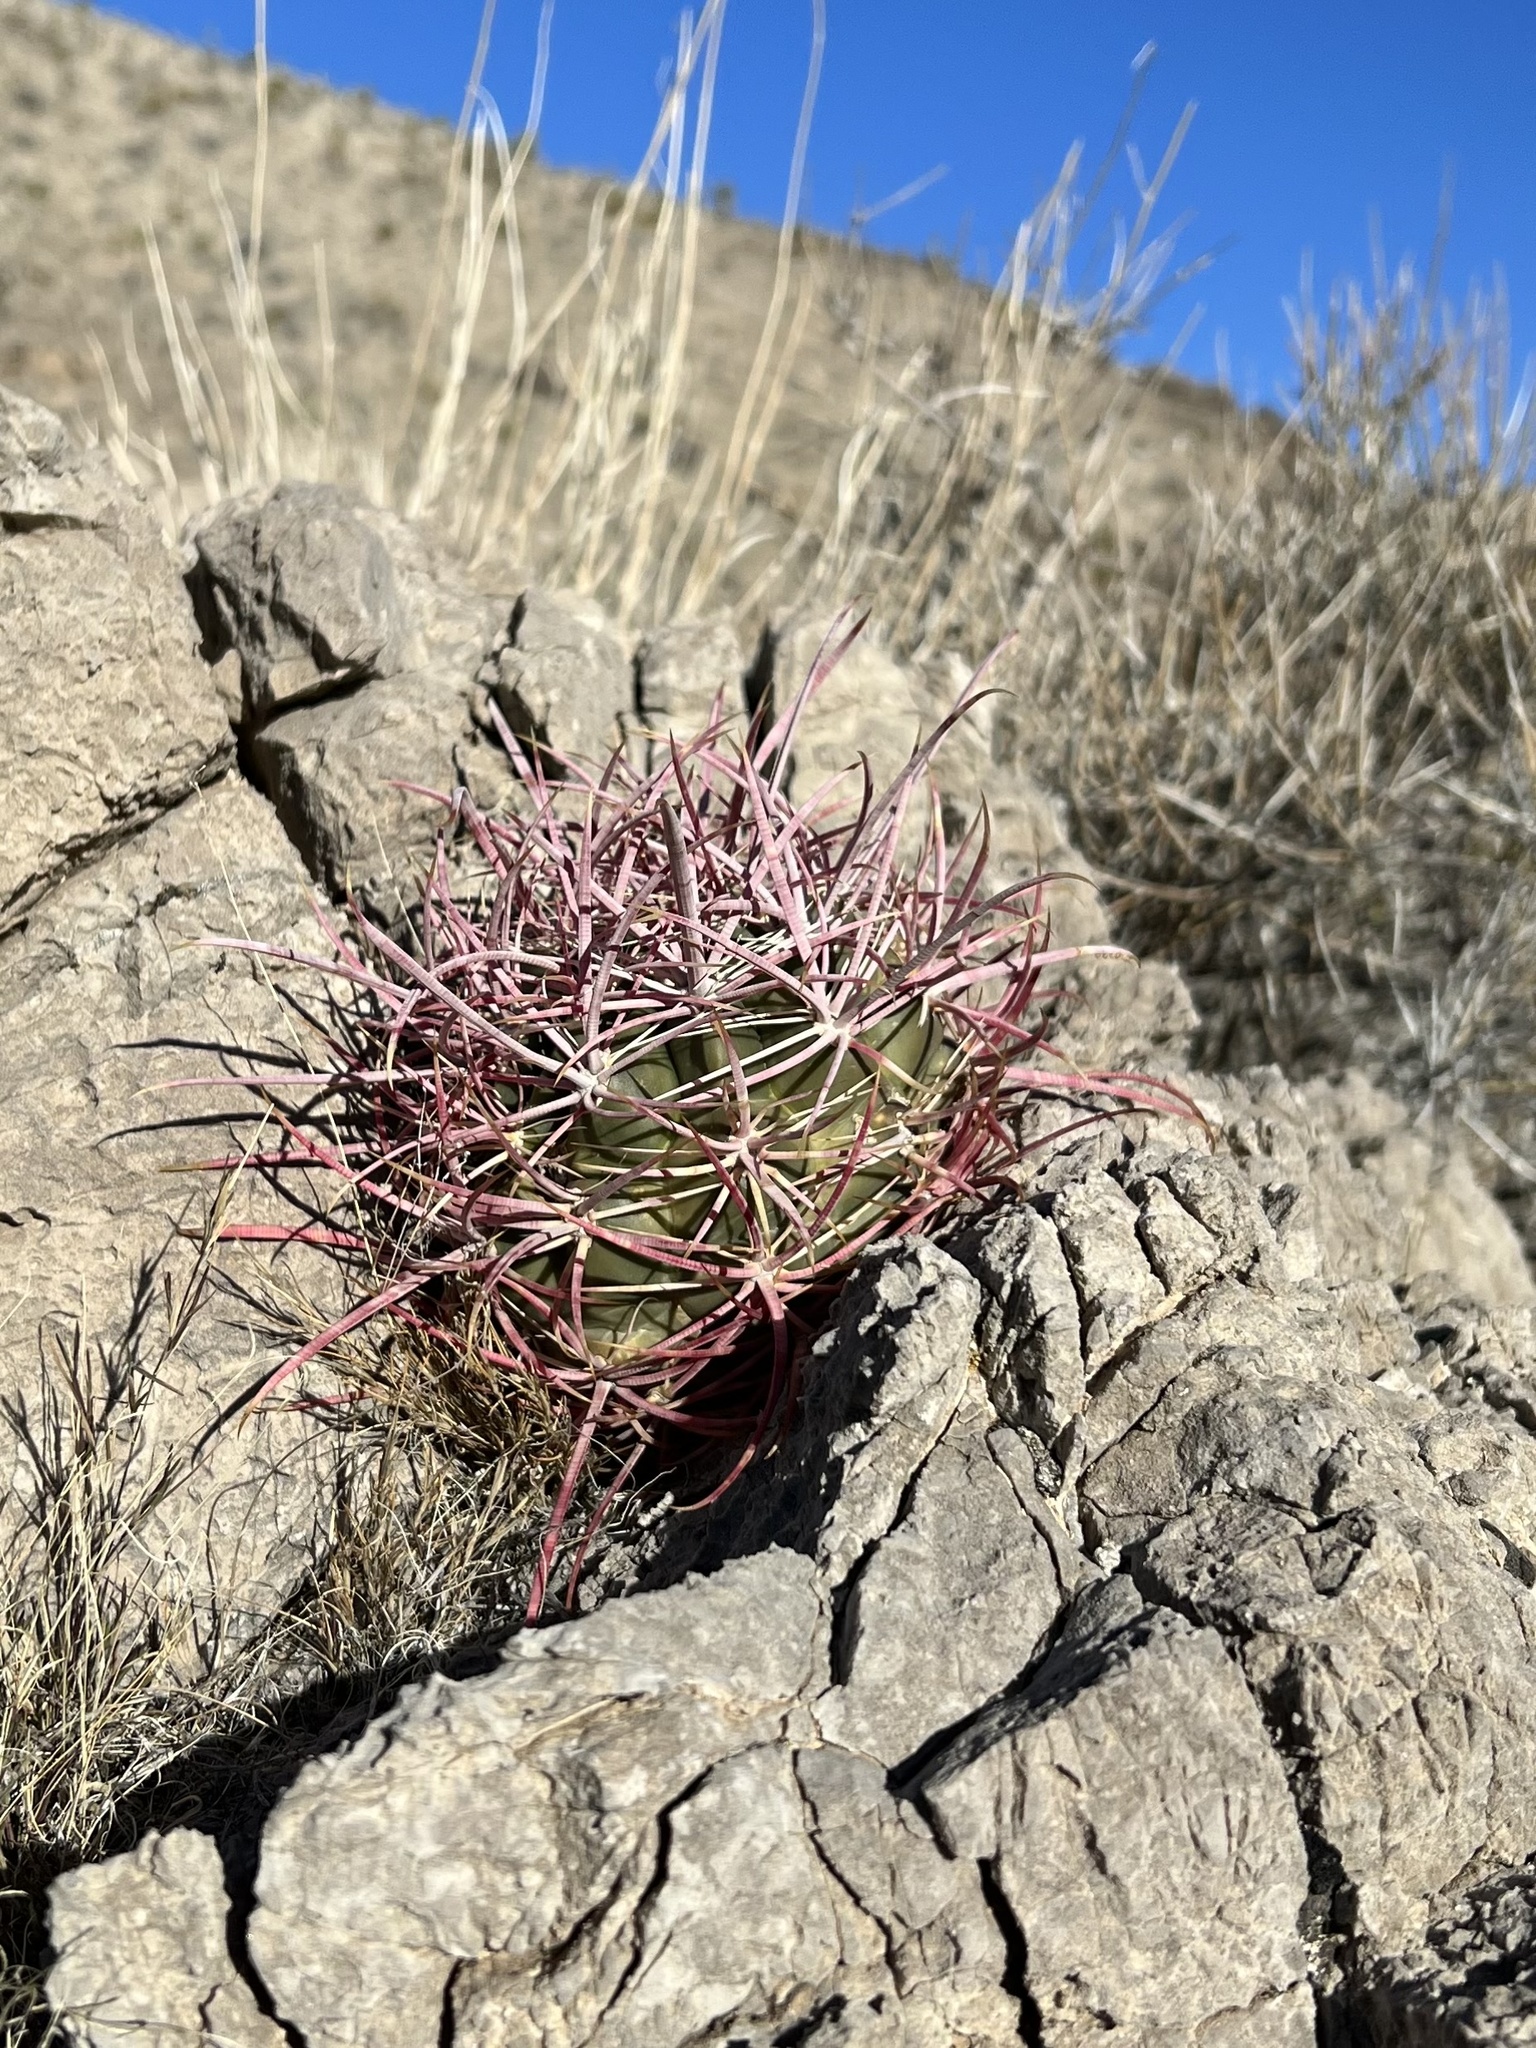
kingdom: Plantae
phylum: Tracheophyta
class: Magnoliopsida
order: Caryophyllales
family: Cactaceae
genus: Ferocactus
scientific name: Ferocactus cylindraceus
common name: California barrel cactus
